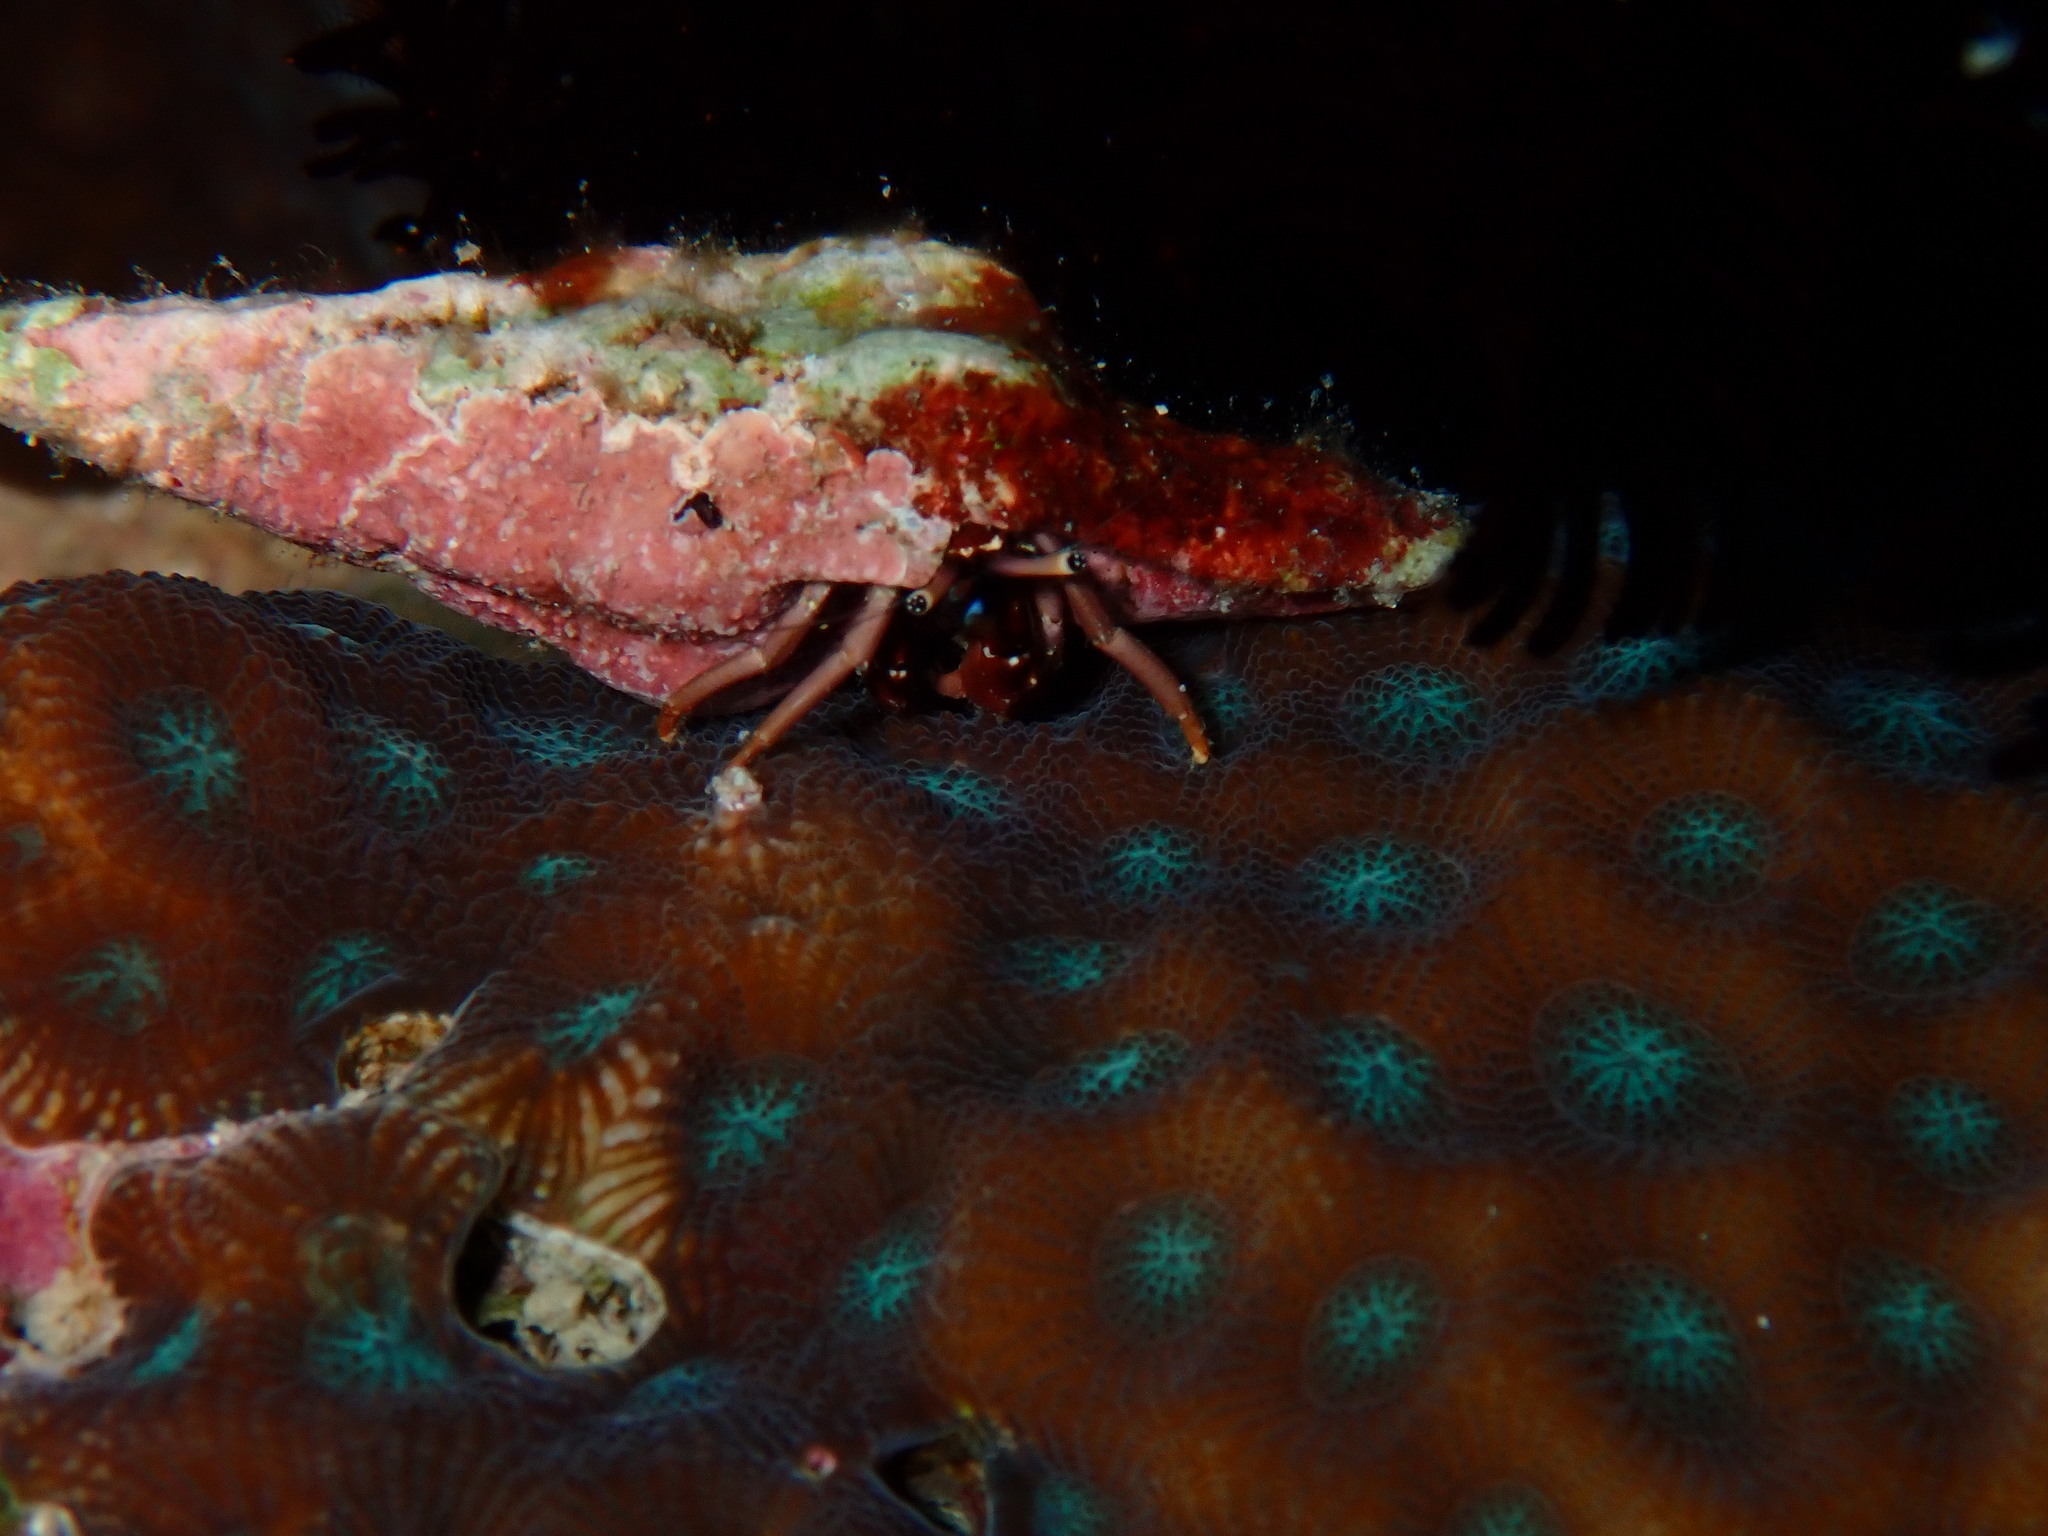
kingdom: Animalia
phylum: Arthropoda
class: Malacostraca
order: Decapoda
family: Diogenidae
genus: Calcinus
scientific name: Calcinus rosaceus
